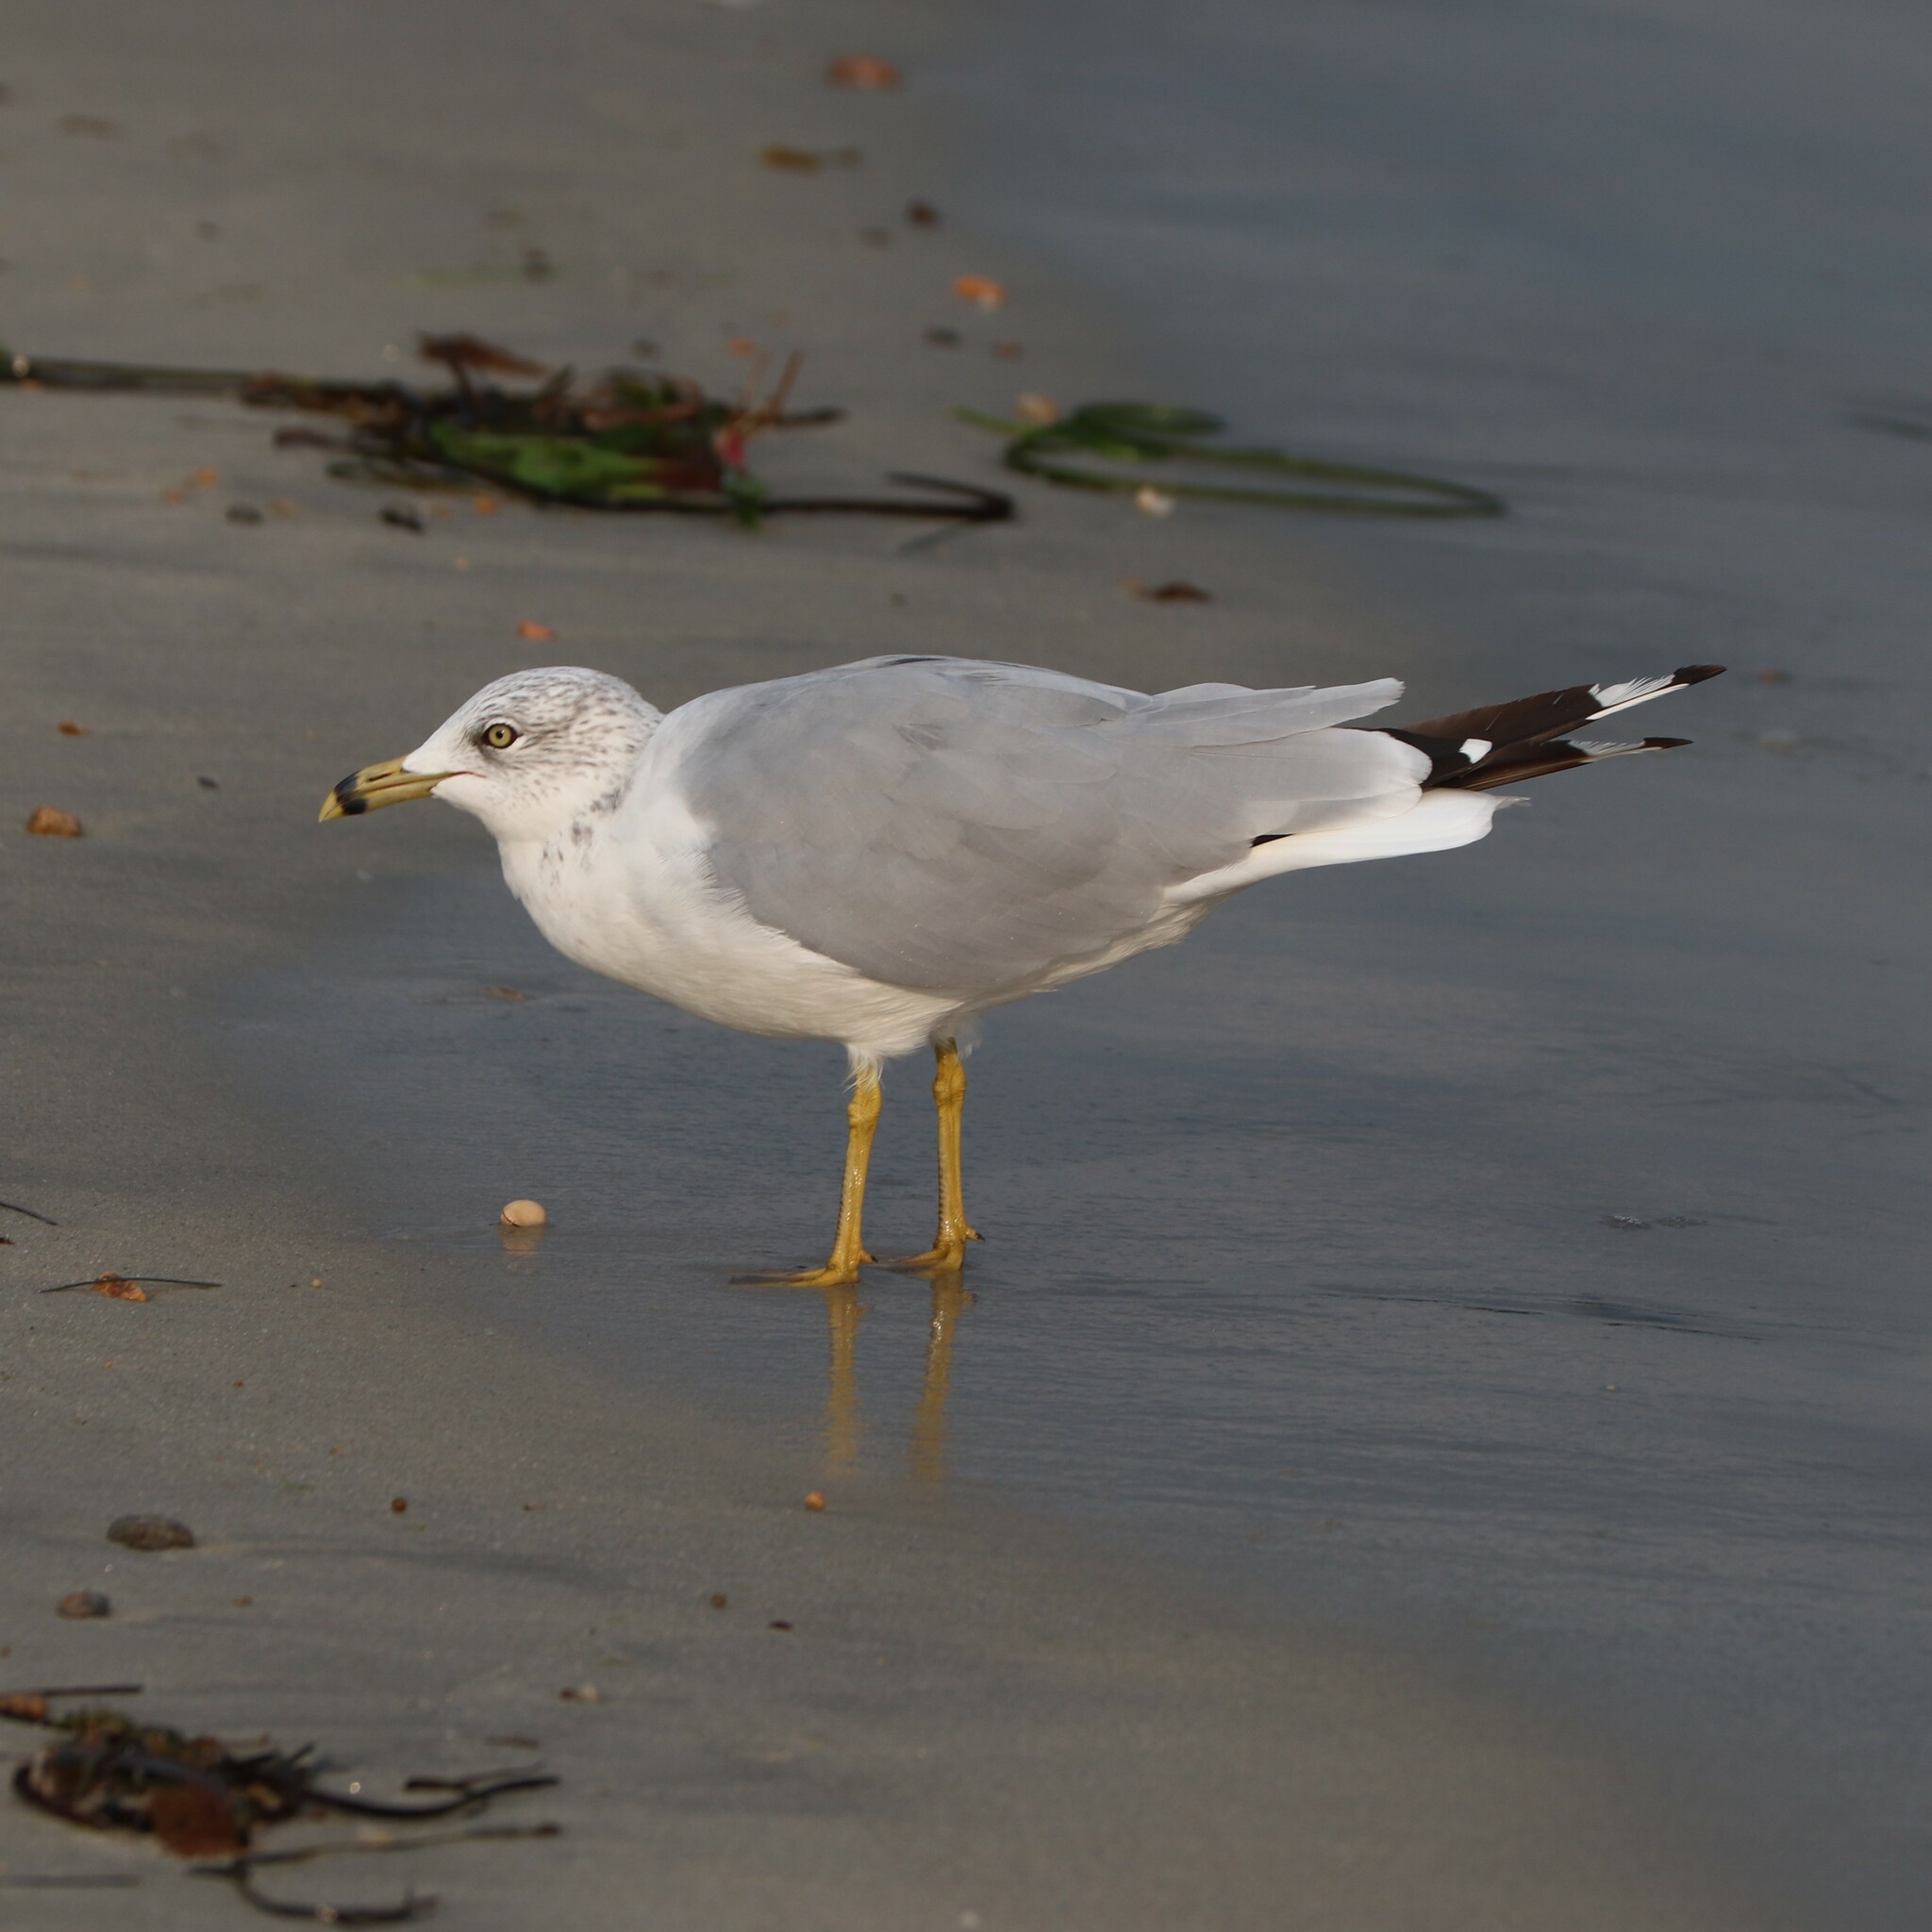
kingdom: Animalia
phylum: Chordata
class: Aves
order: Charadriiformes
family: Laridae
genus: Larus
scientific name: Larus delawarensis
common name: Ring-billed gull
